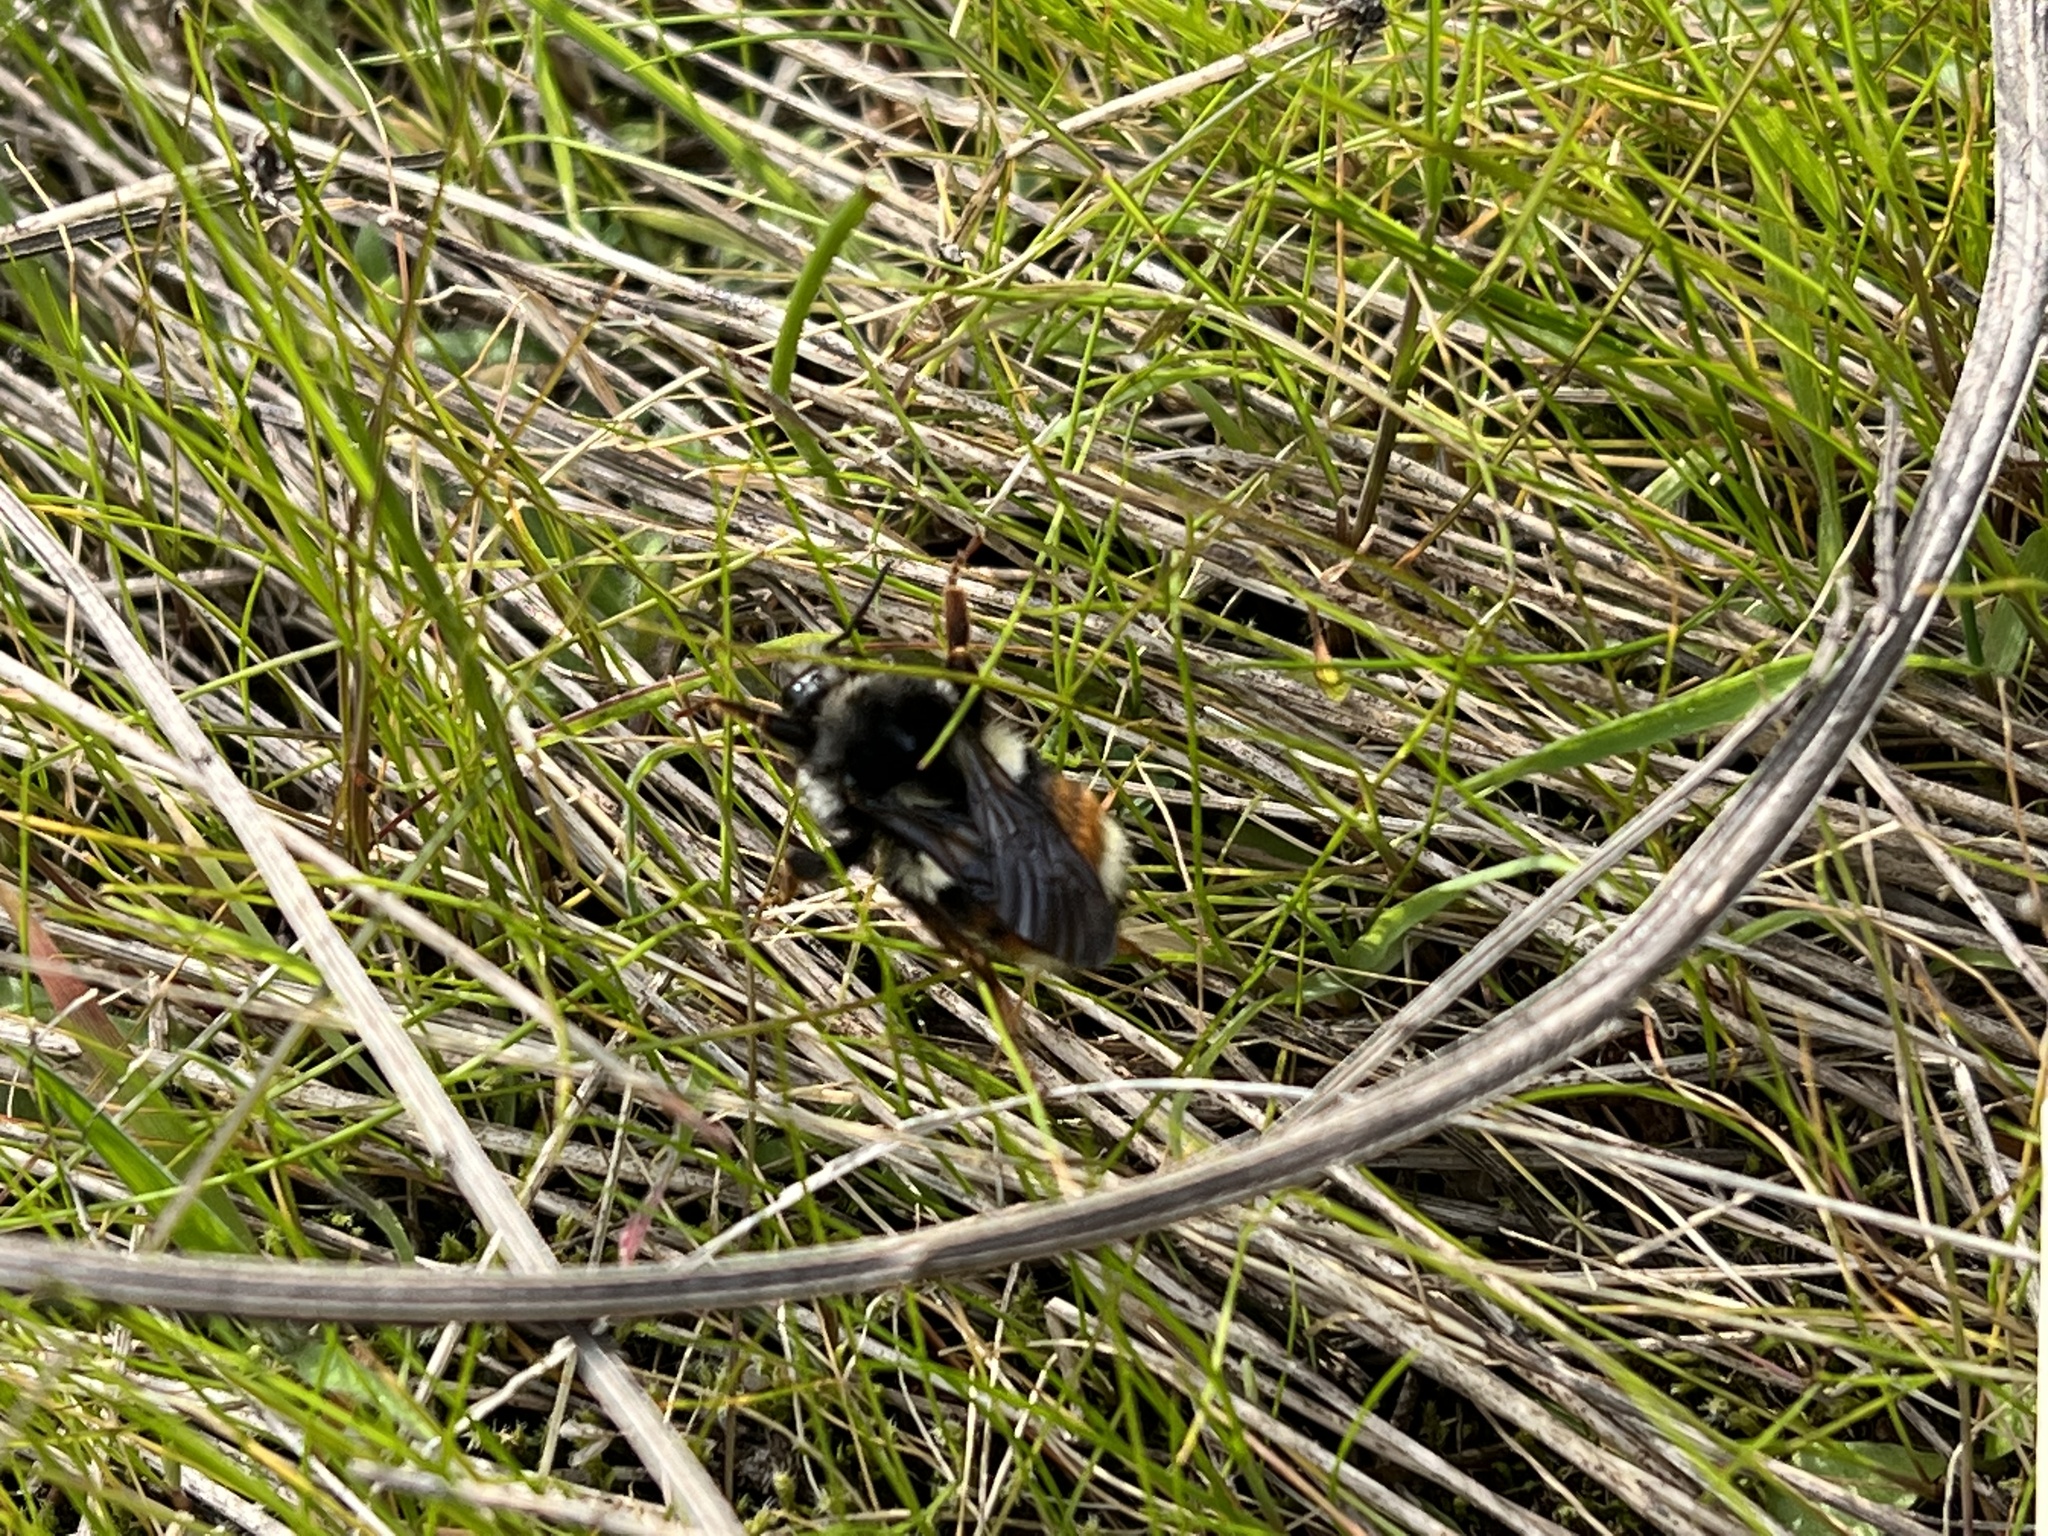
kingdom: Animalia
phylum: Arthropoda
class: Insecta
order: Hymenoptera
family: Apidae
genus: Bombus
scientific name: Bombus vancouverensis
